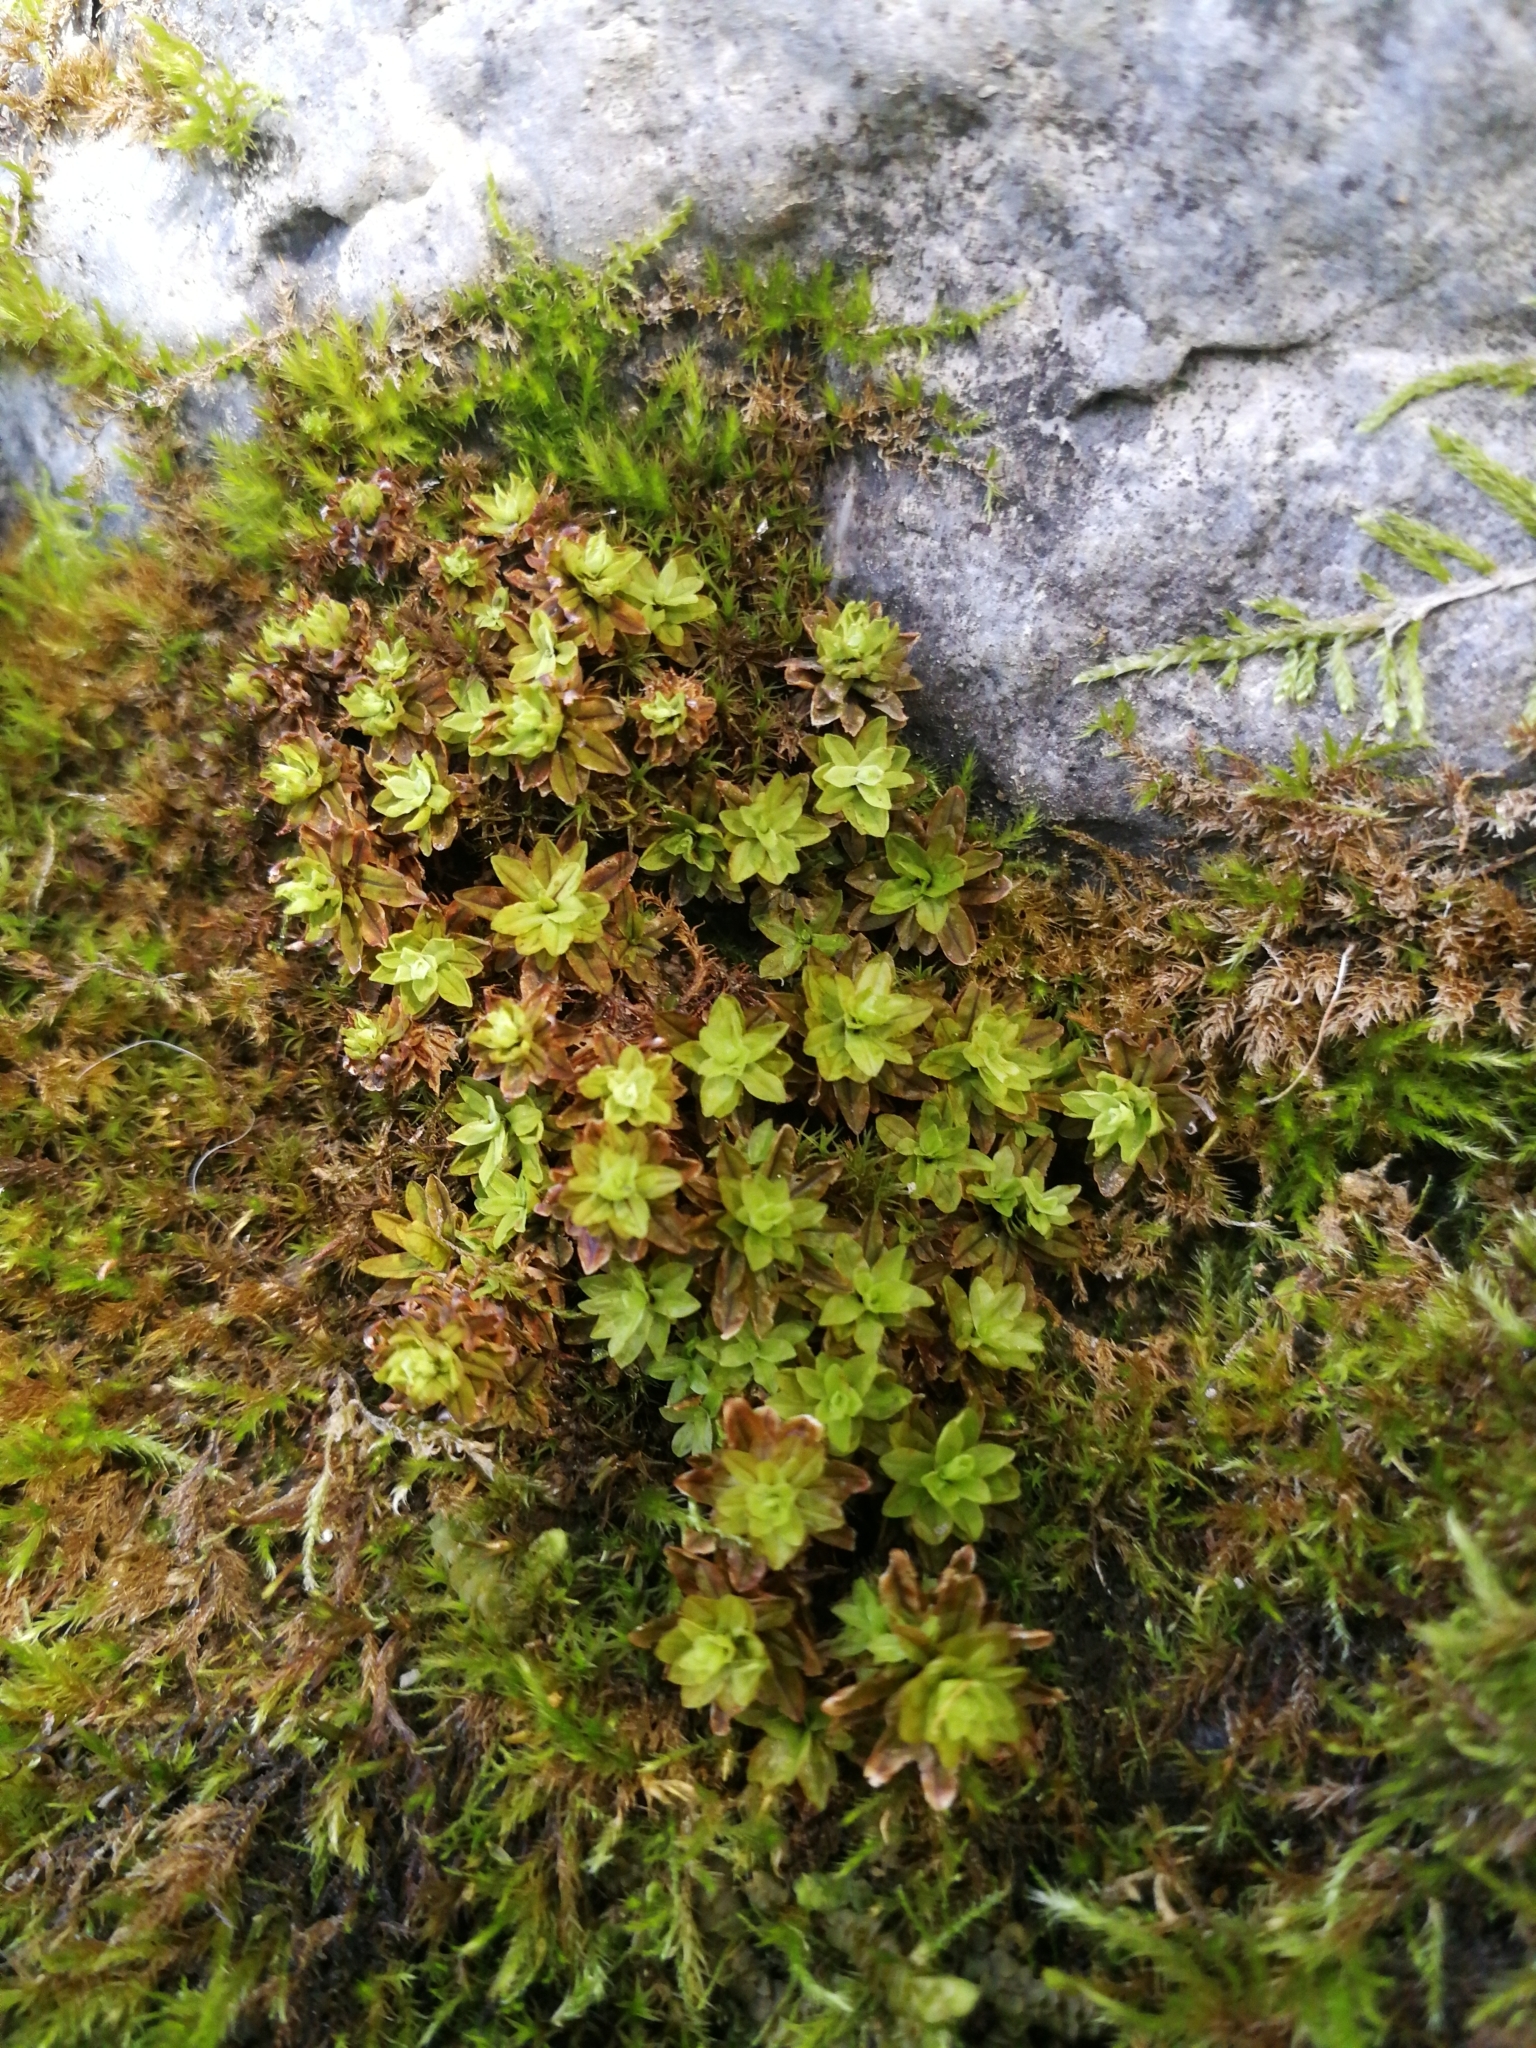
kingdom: Plantae
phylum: Bryophyta
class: Bryopsida
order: Pottiales
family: Pottiaceae
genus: Syntrichia
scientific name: Syntrichia ruralis
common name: Sidewalk screw moss
